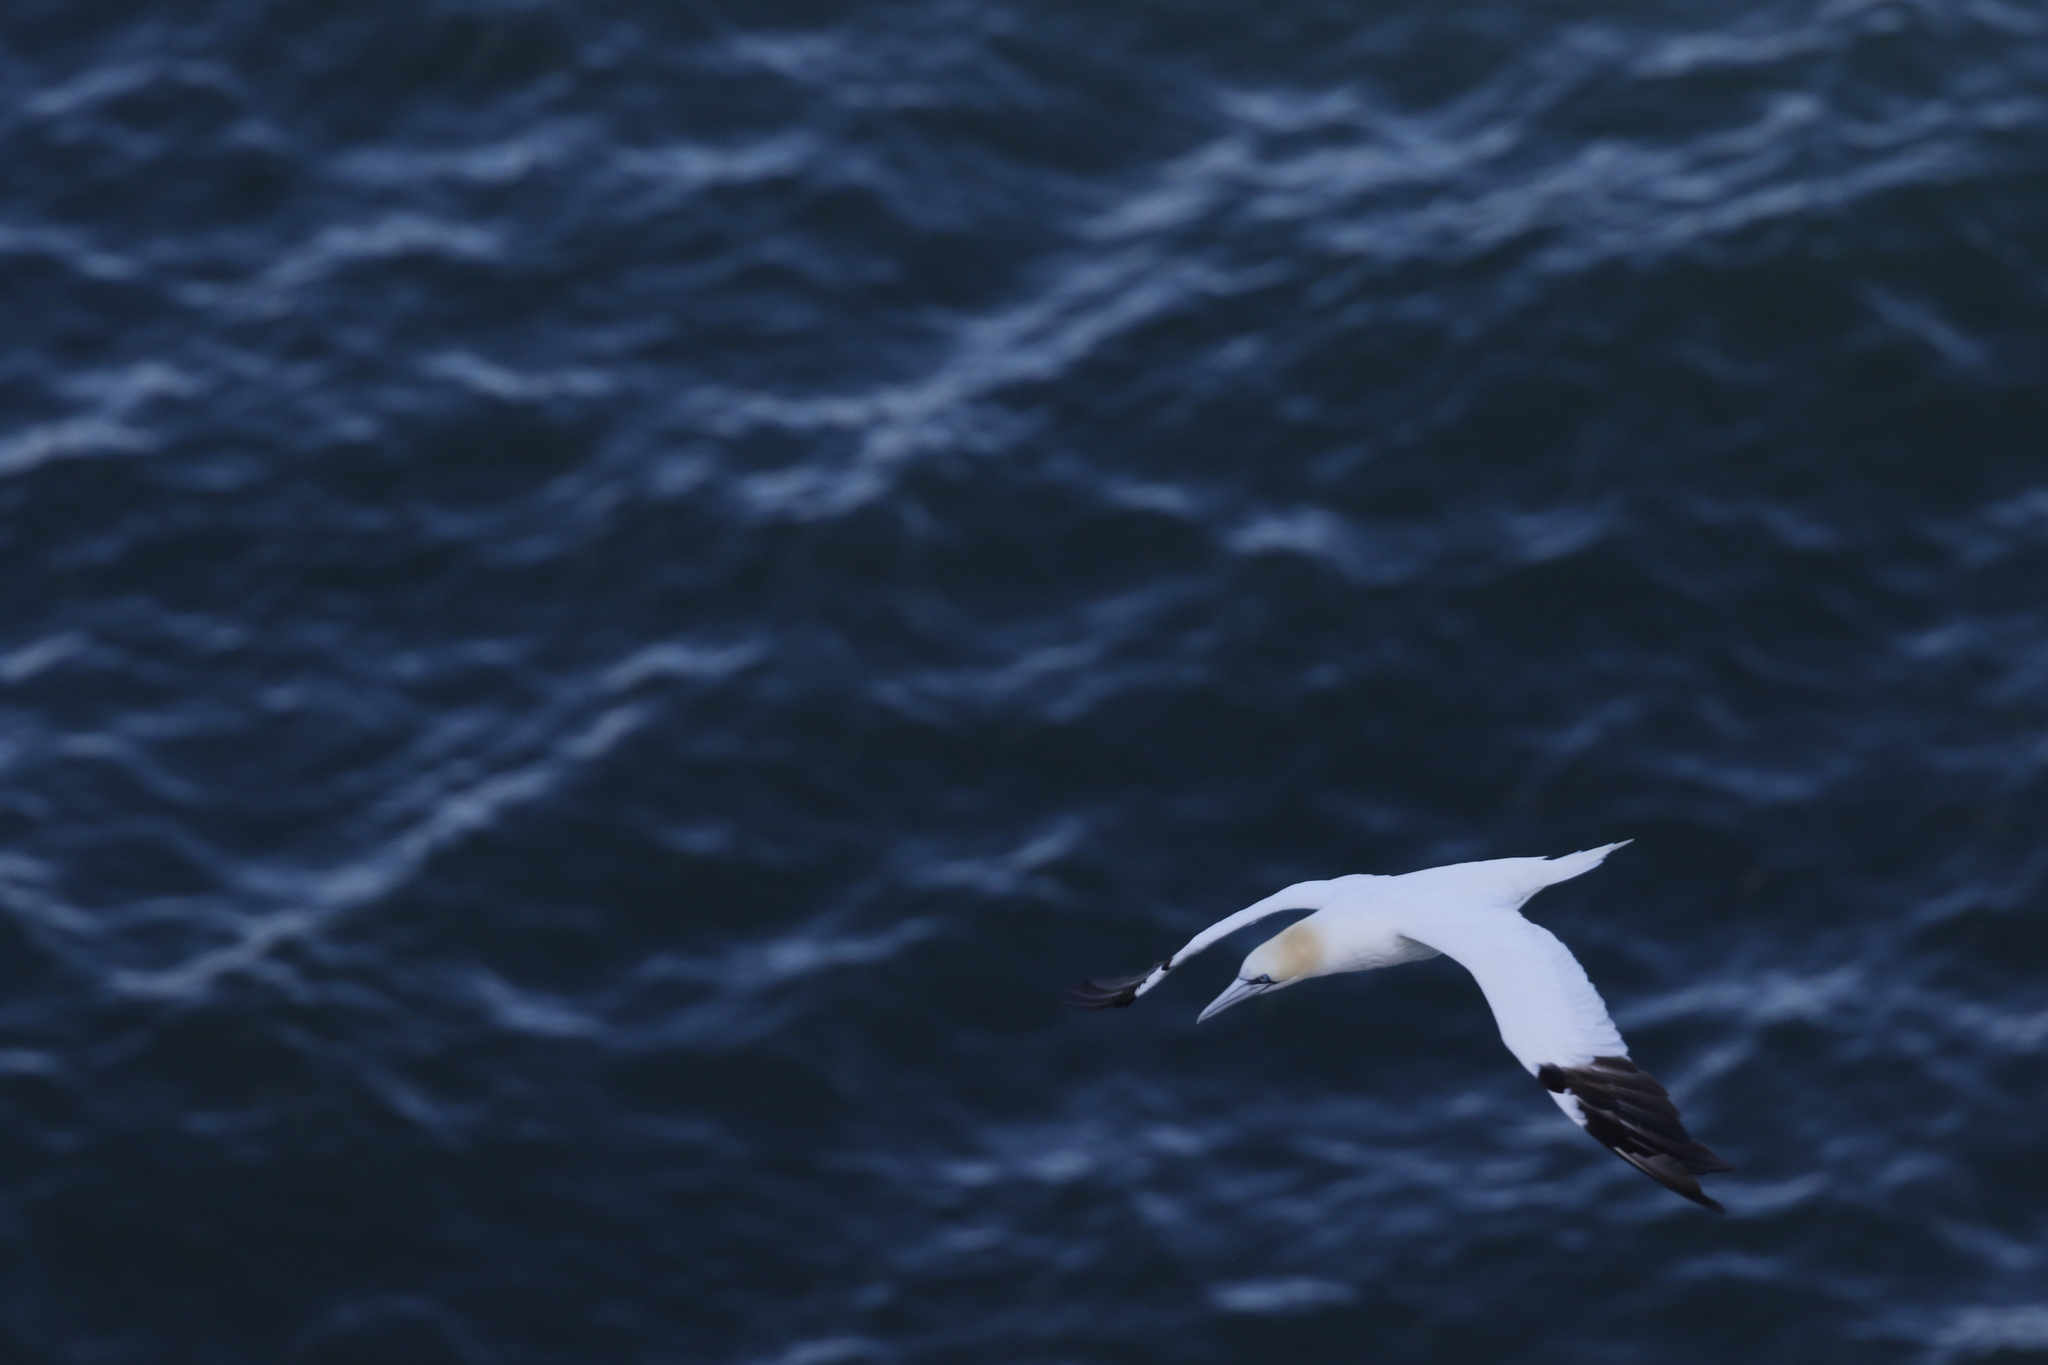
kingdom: Animalia
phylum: Chordata
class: Aves
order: Suliformes
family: Sulidae
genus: Morus
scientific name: Morus bassanus
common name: Northern gannet
